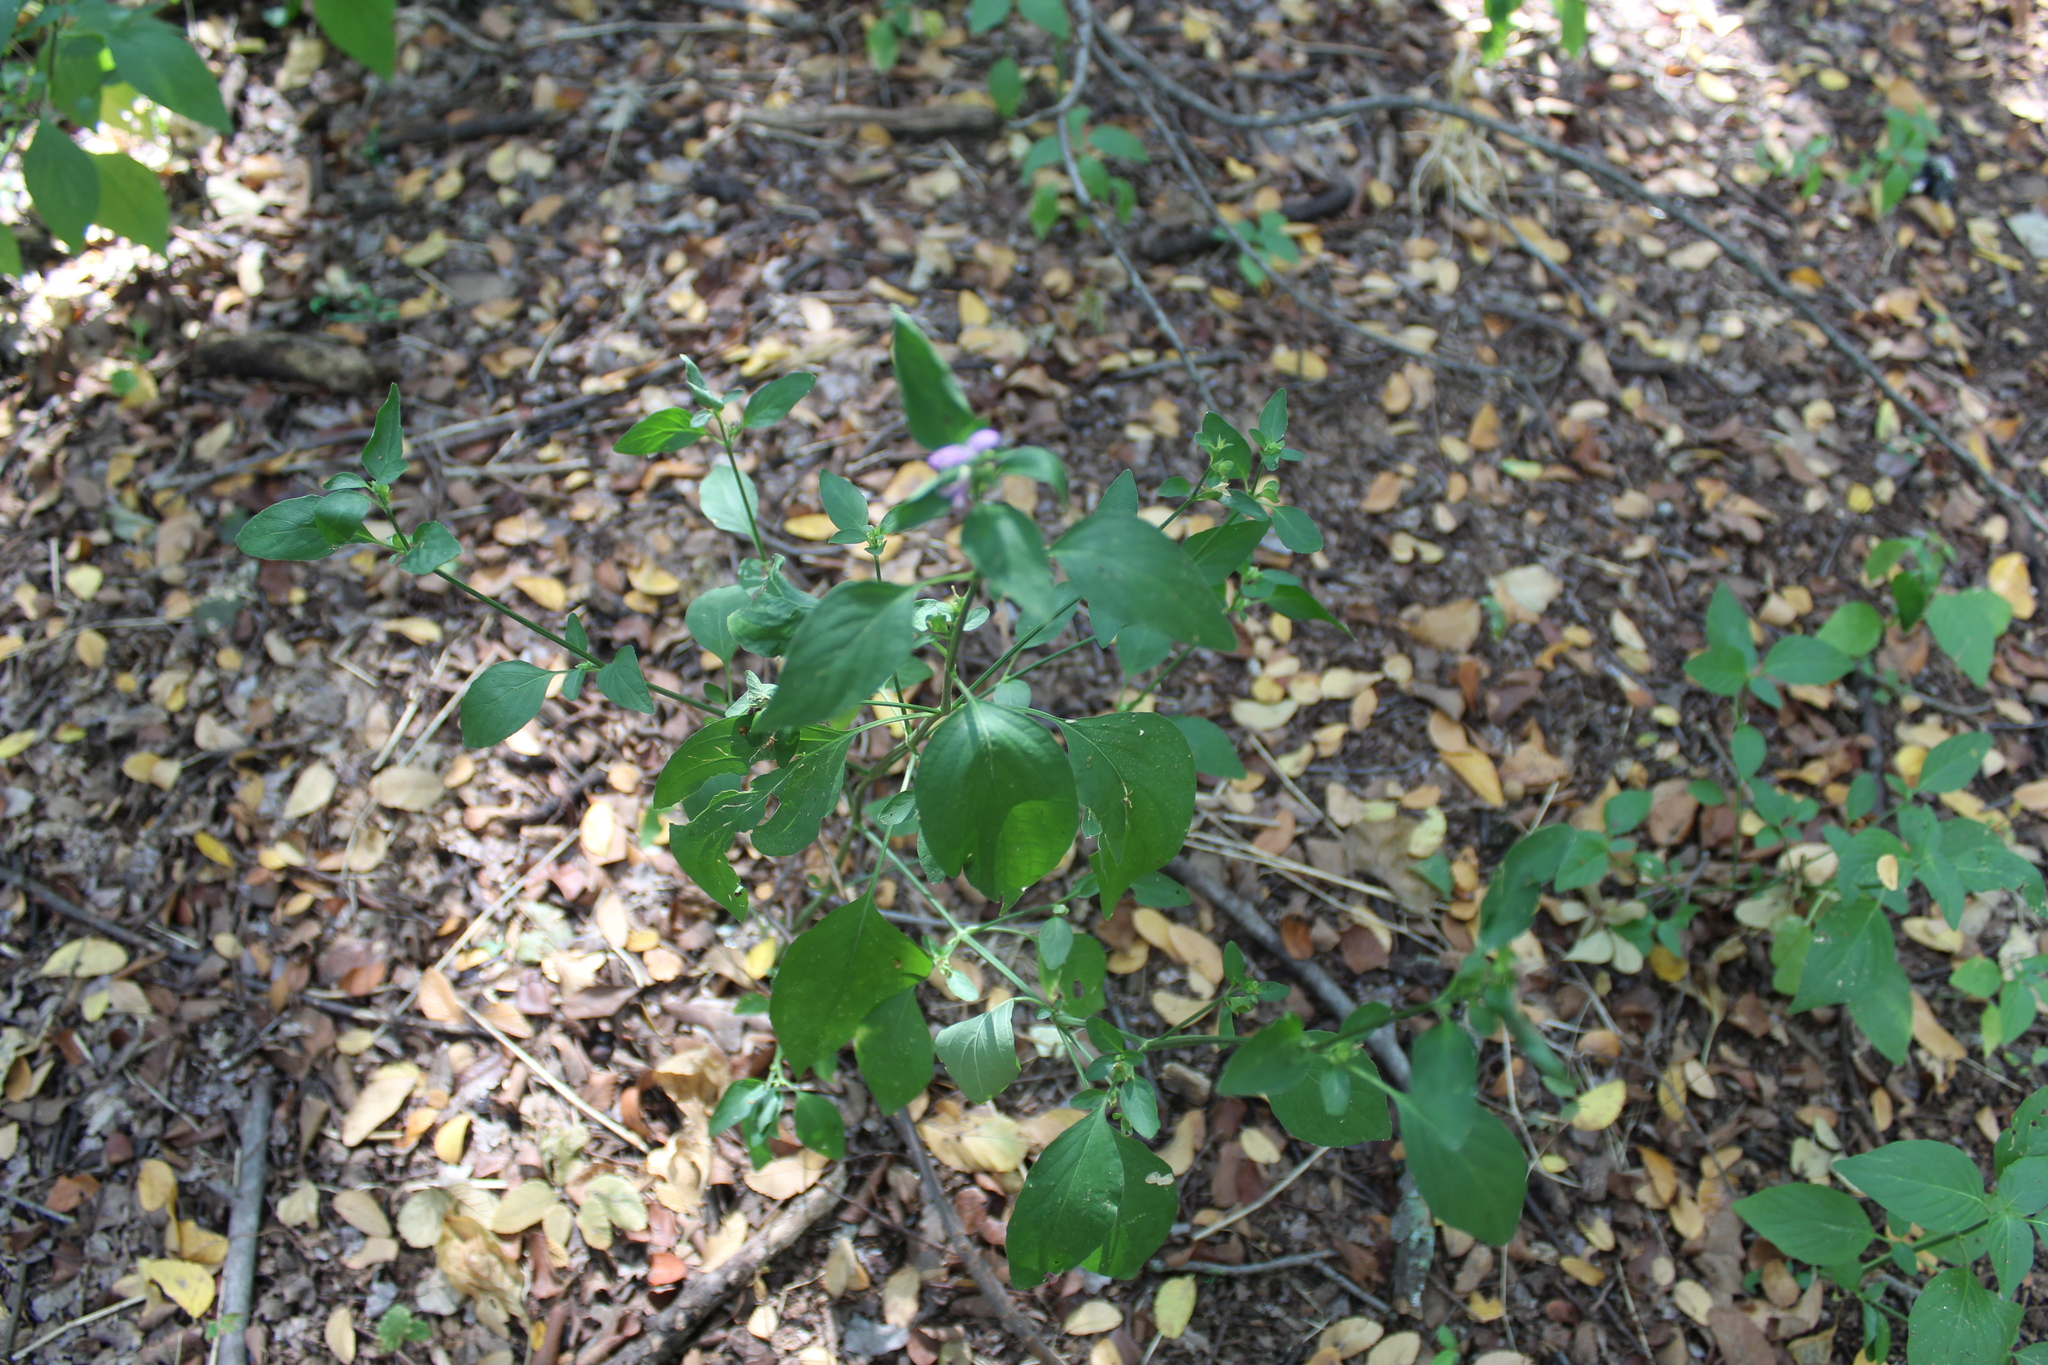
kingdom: Plantae
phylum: Tracheophyta
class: Magnoliopsida
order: Lamiales
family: Acanthaceae
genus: Dicliptera
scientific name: Dicliptera brachiata
